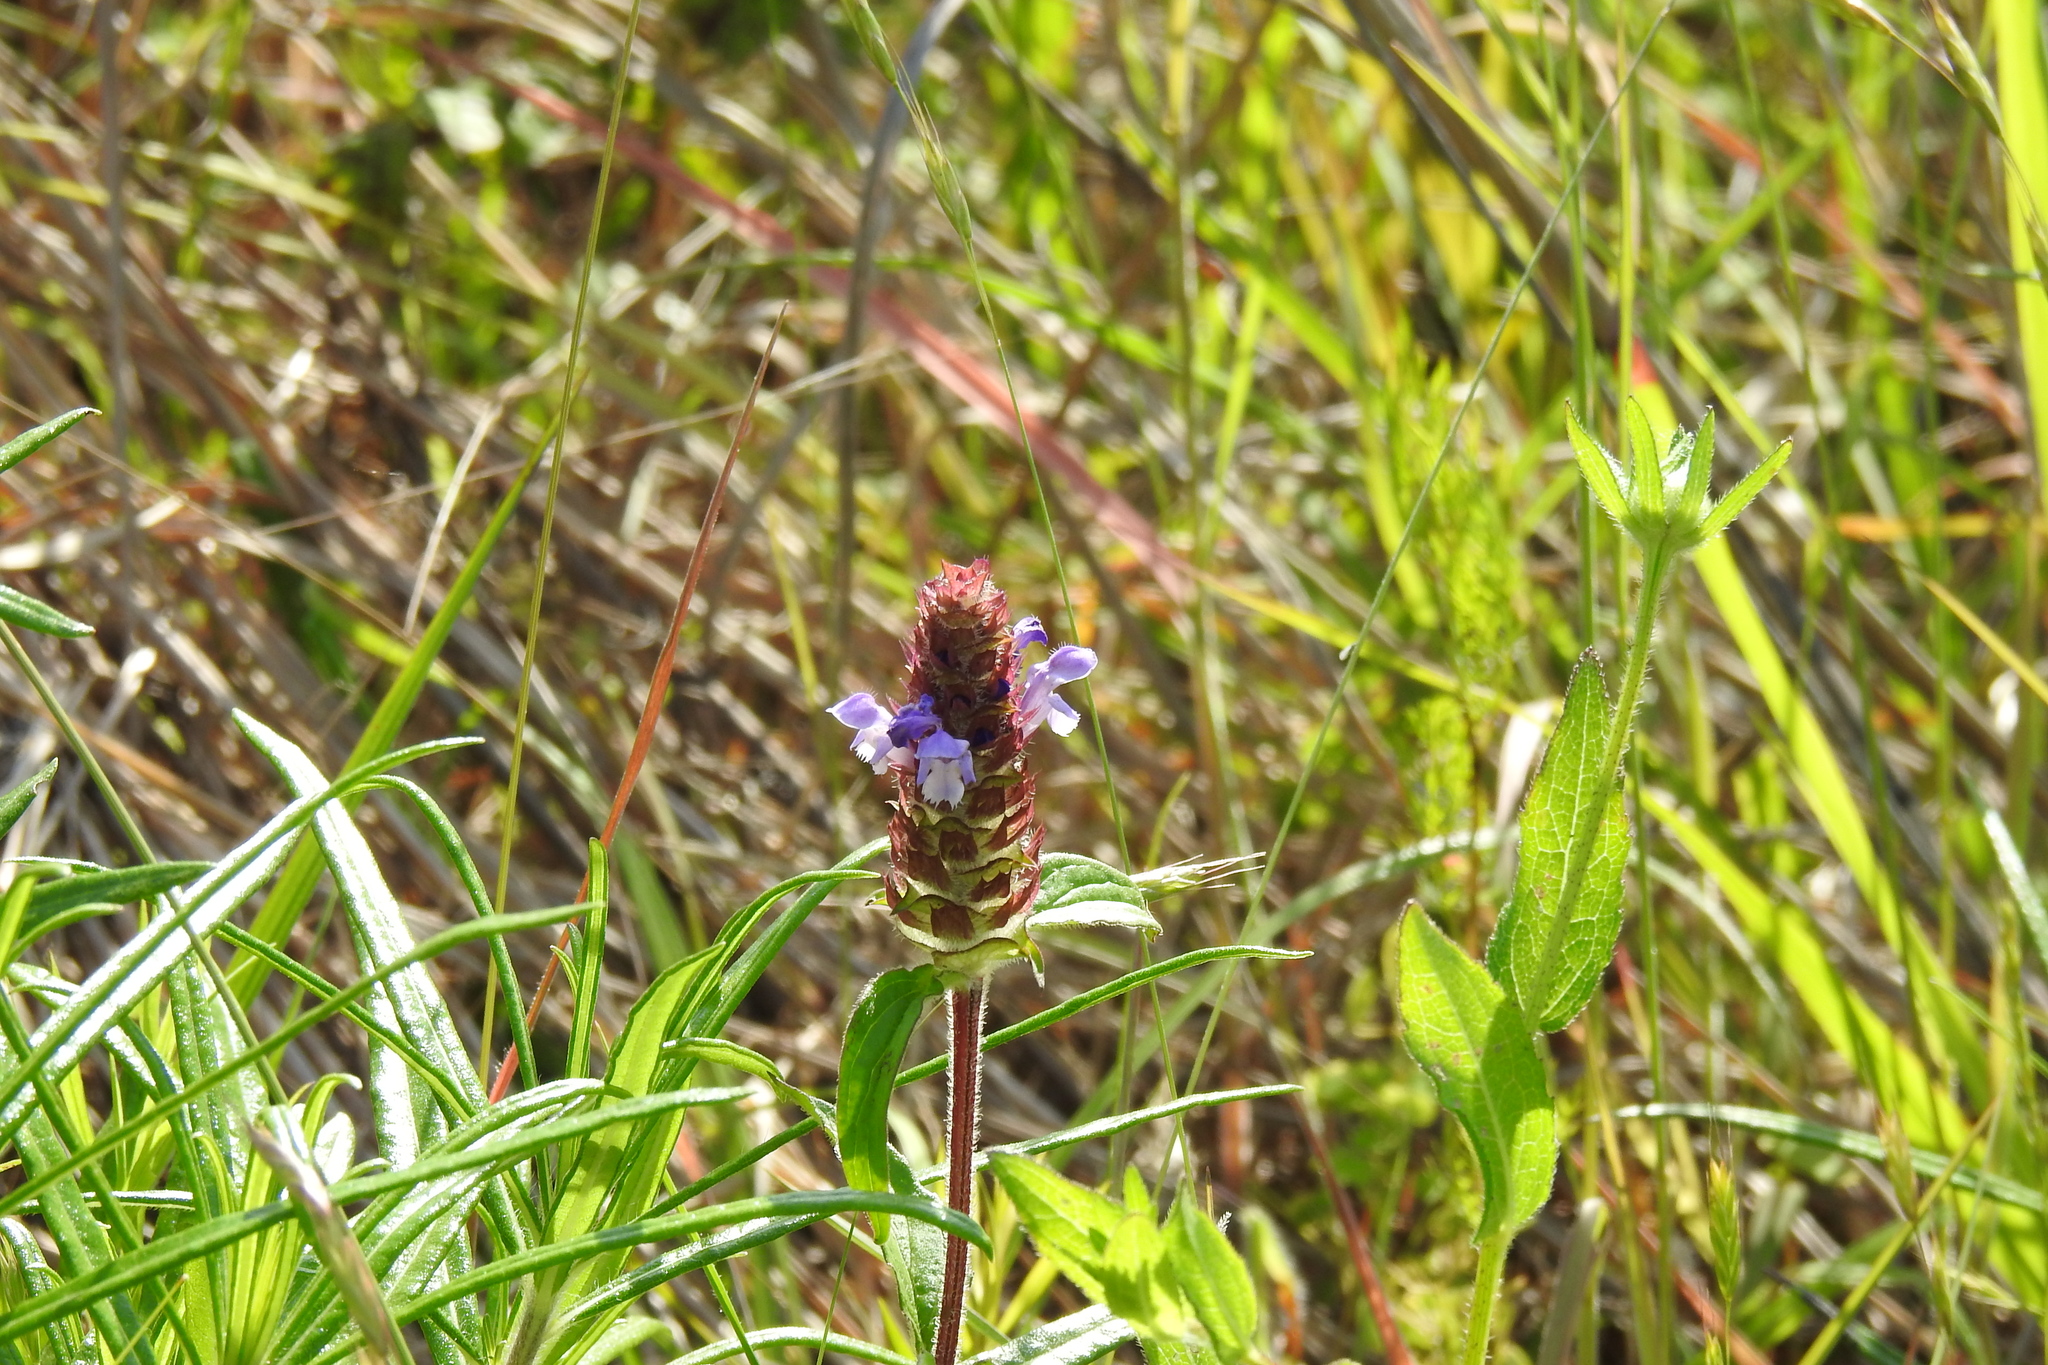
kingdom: Plantae
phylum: Tracheophyta
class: Magnoliopsida
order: Lamiales
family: Lamiaceae
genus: Prunella
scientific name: Prunella vulgaris
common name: Heal-all
